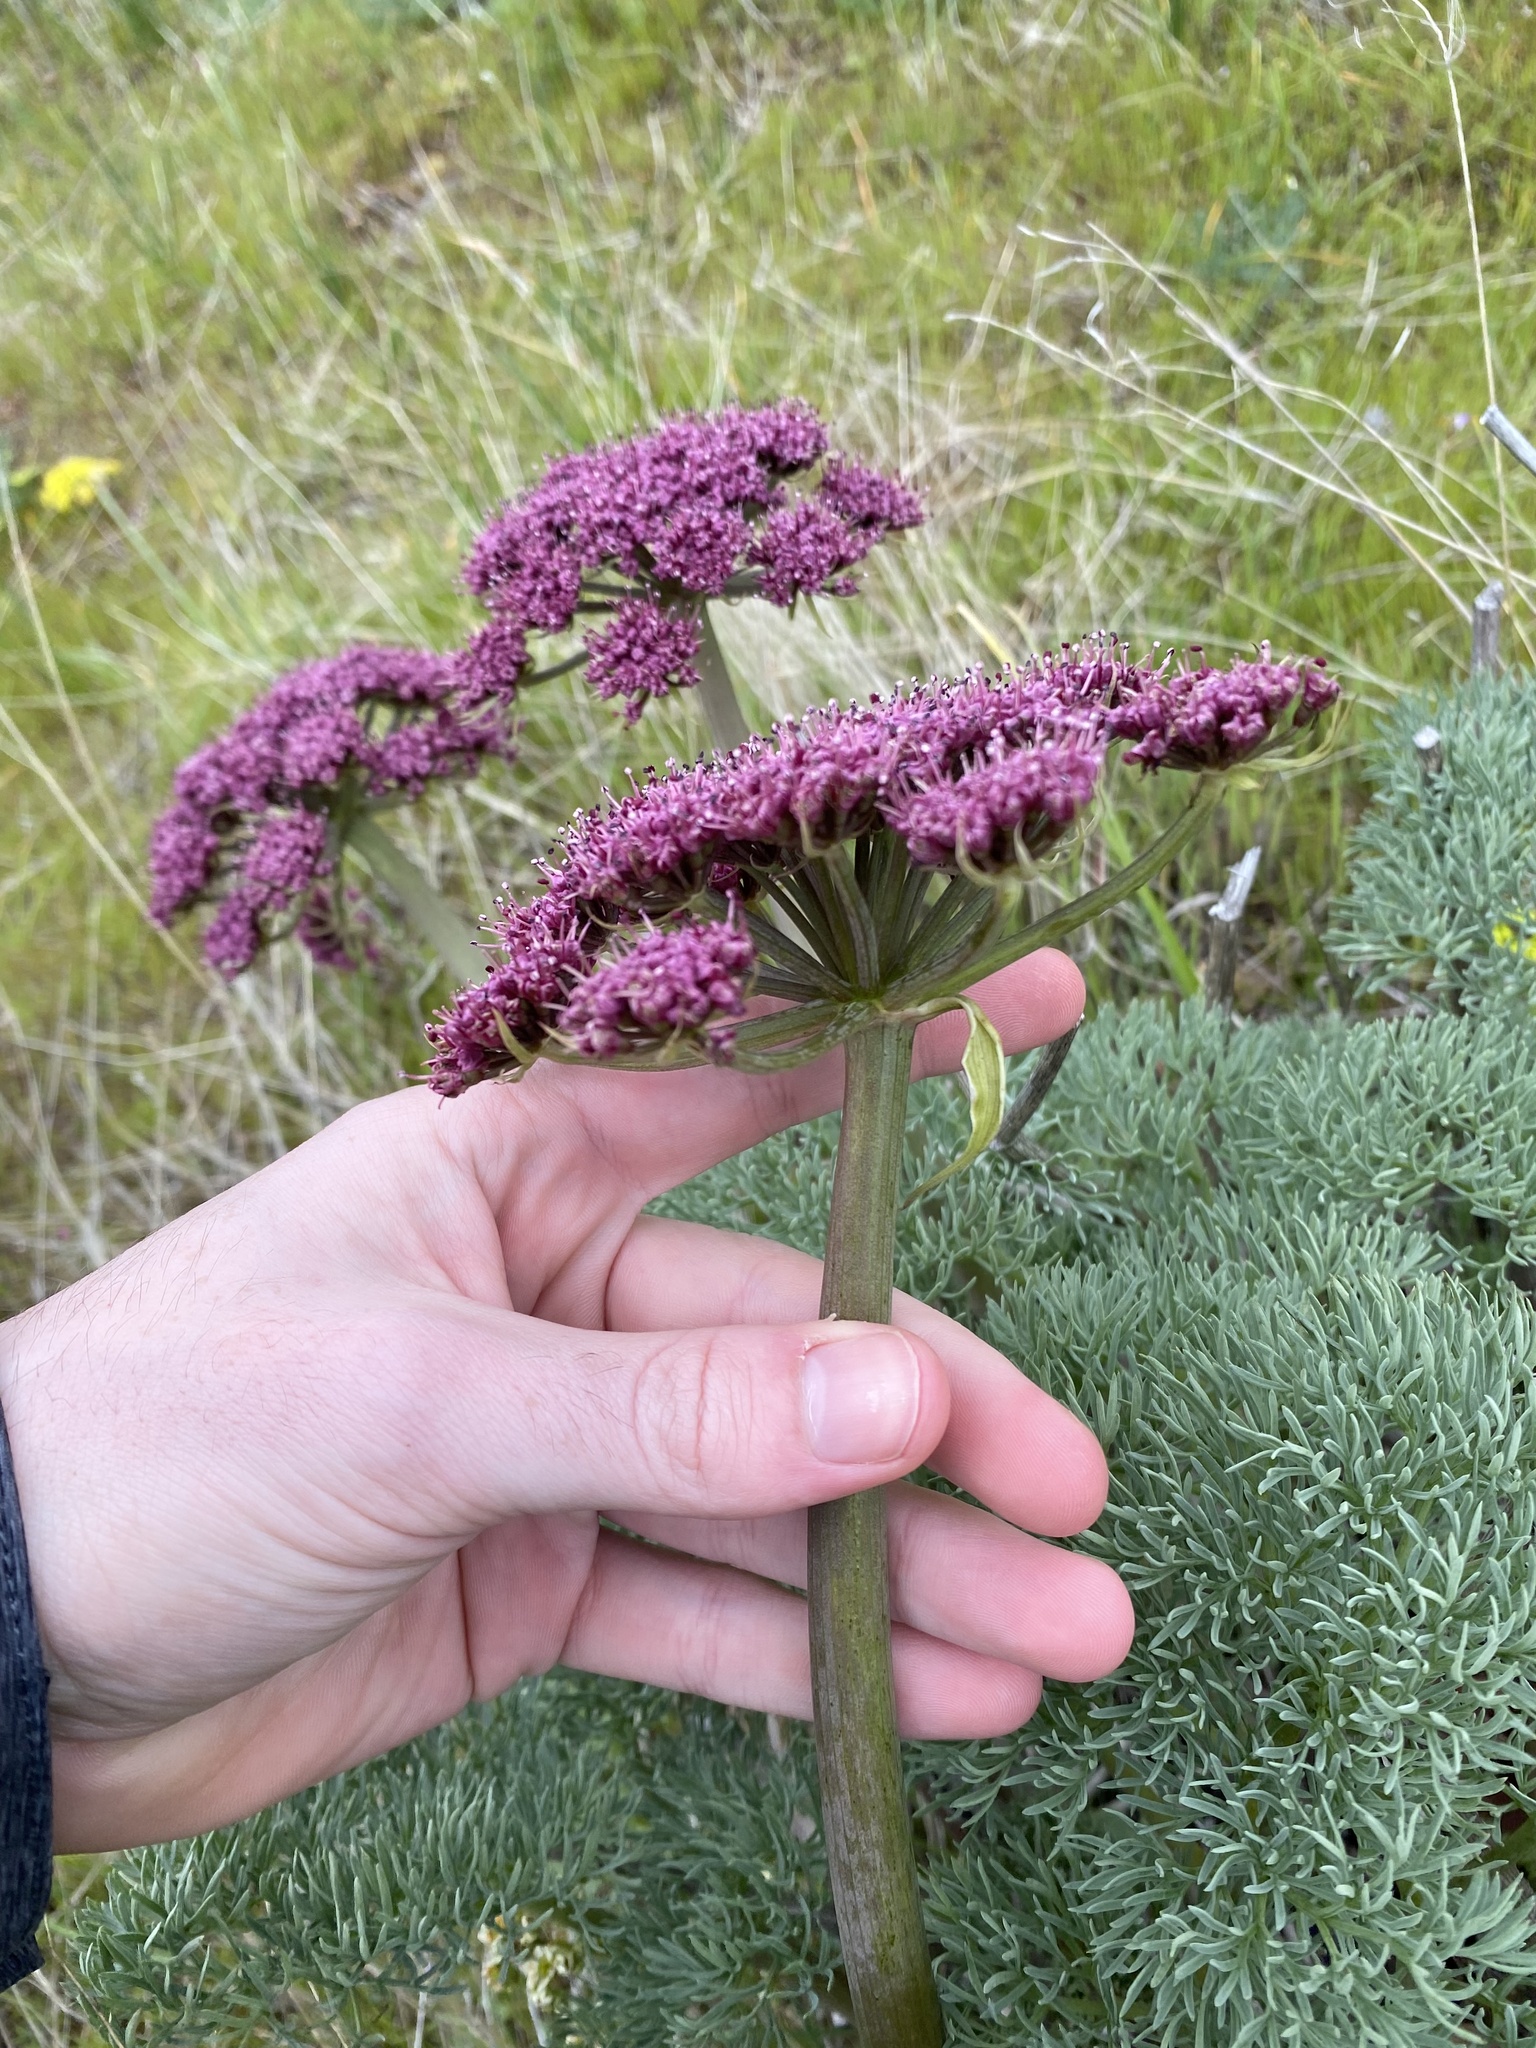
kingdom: Plantae
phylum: Tracheophyta
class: Magnoliopsida
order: Apiales
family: Apiaceae
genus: Lomatium
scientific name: Lomatium columbianum
